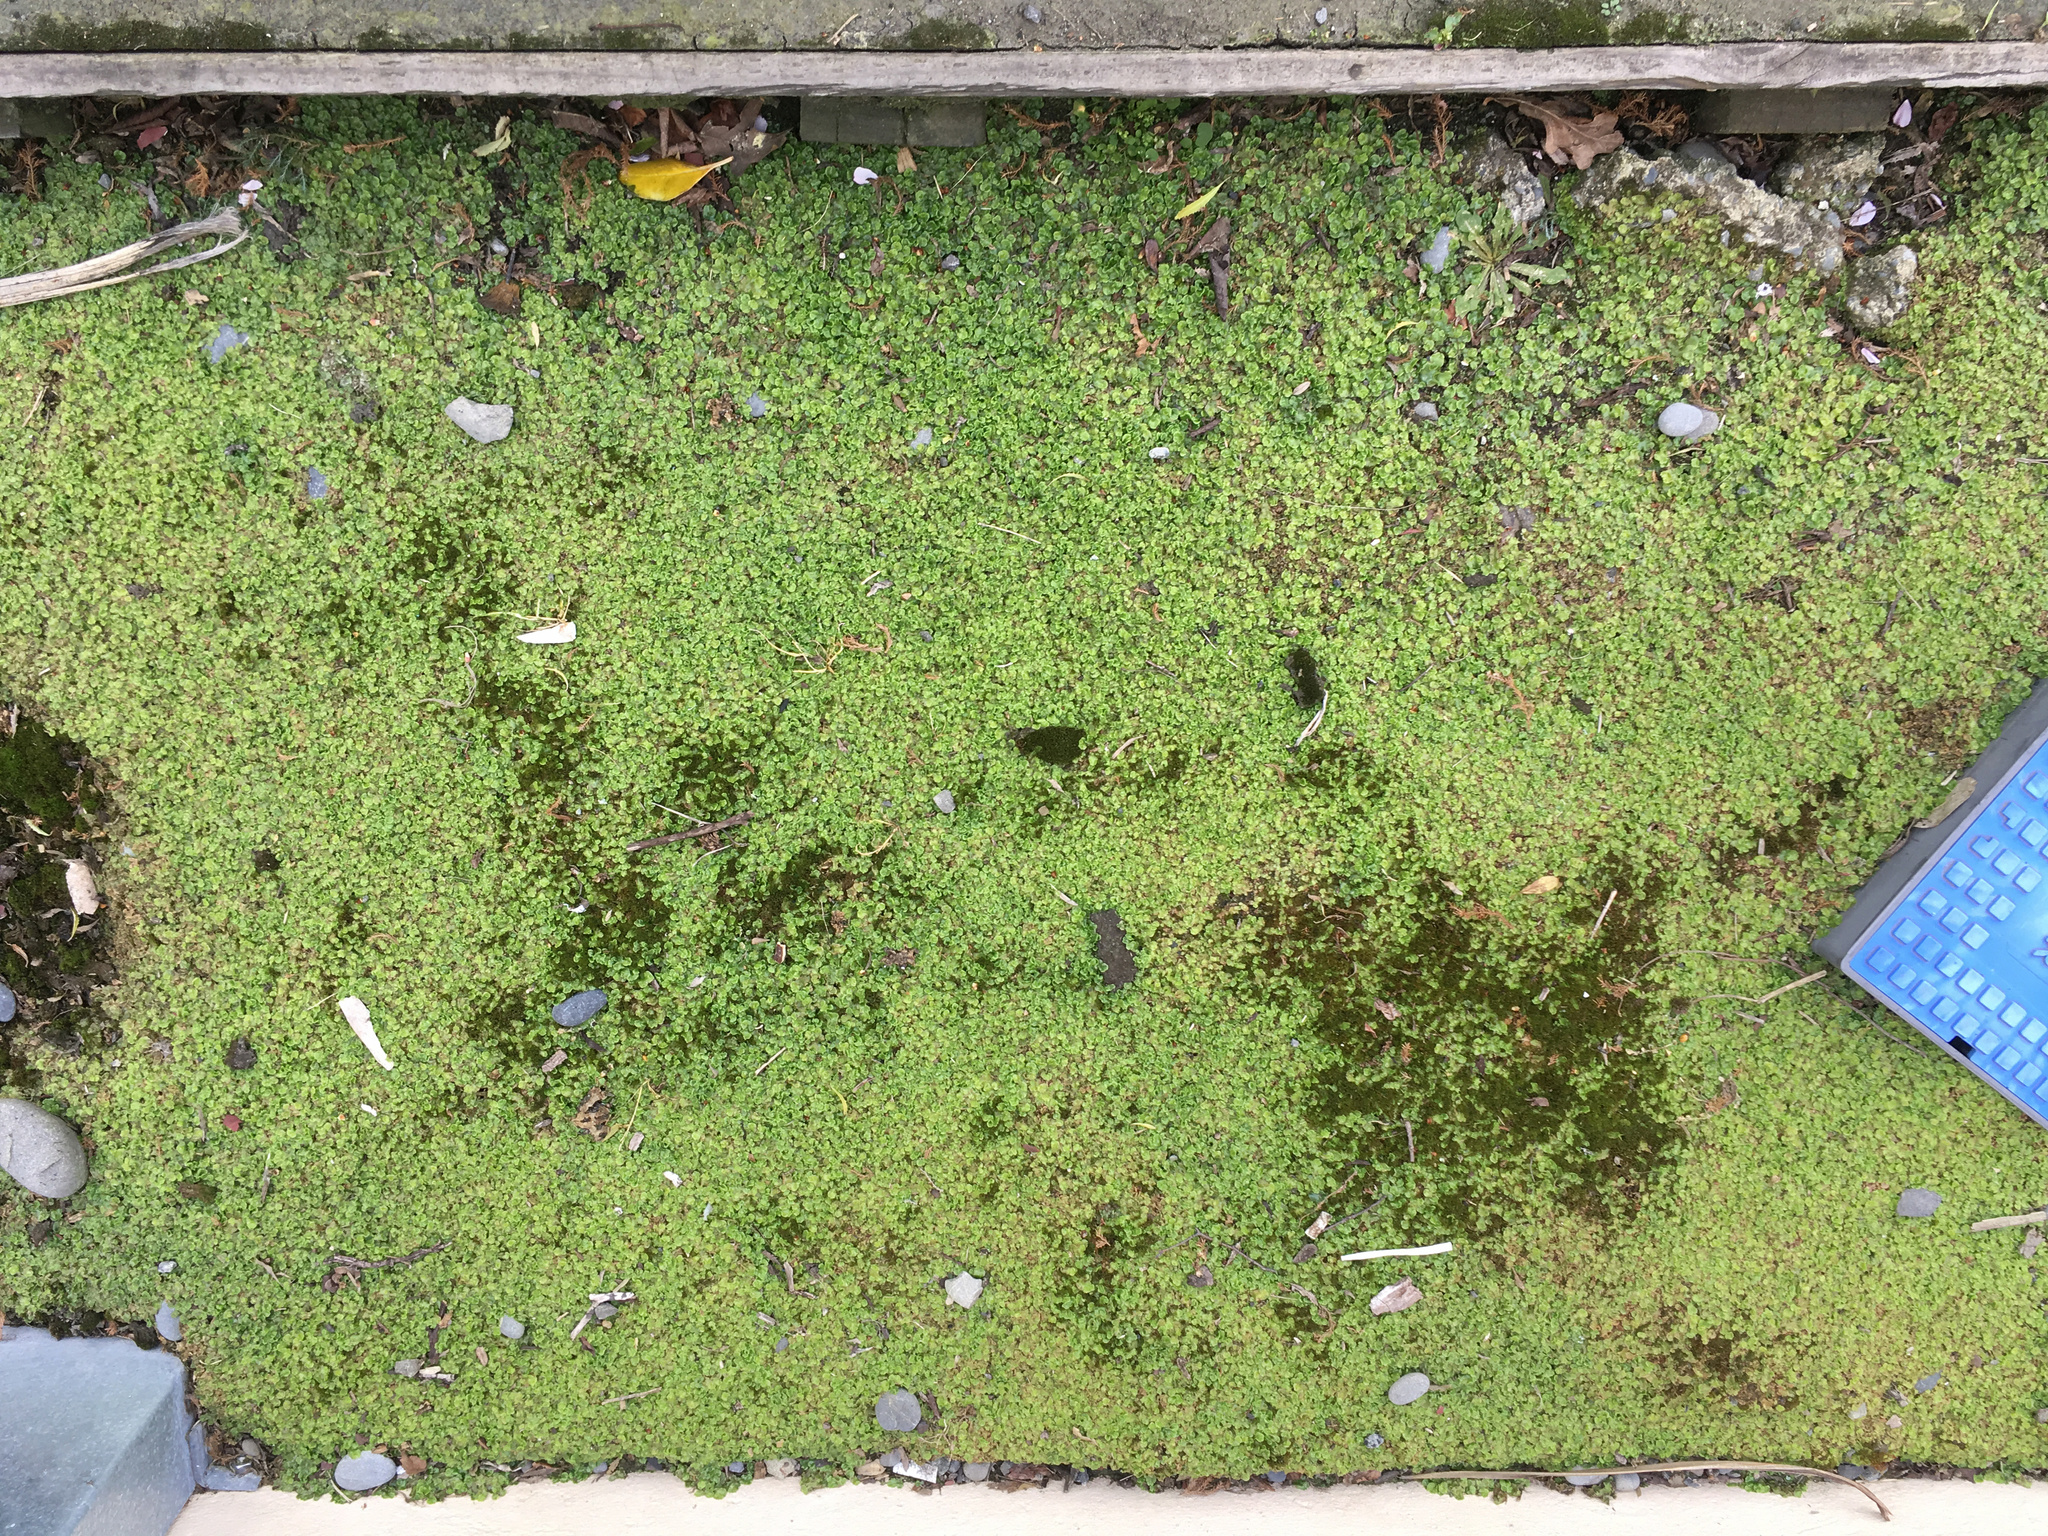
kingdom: Plantae
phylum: Marchantiophyta
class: Marchantiopsida
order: Lunulariales
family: Lunulariaceae
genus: Lunularia
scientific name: Lunularia cruciata
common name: Crescent-cup liverwort
